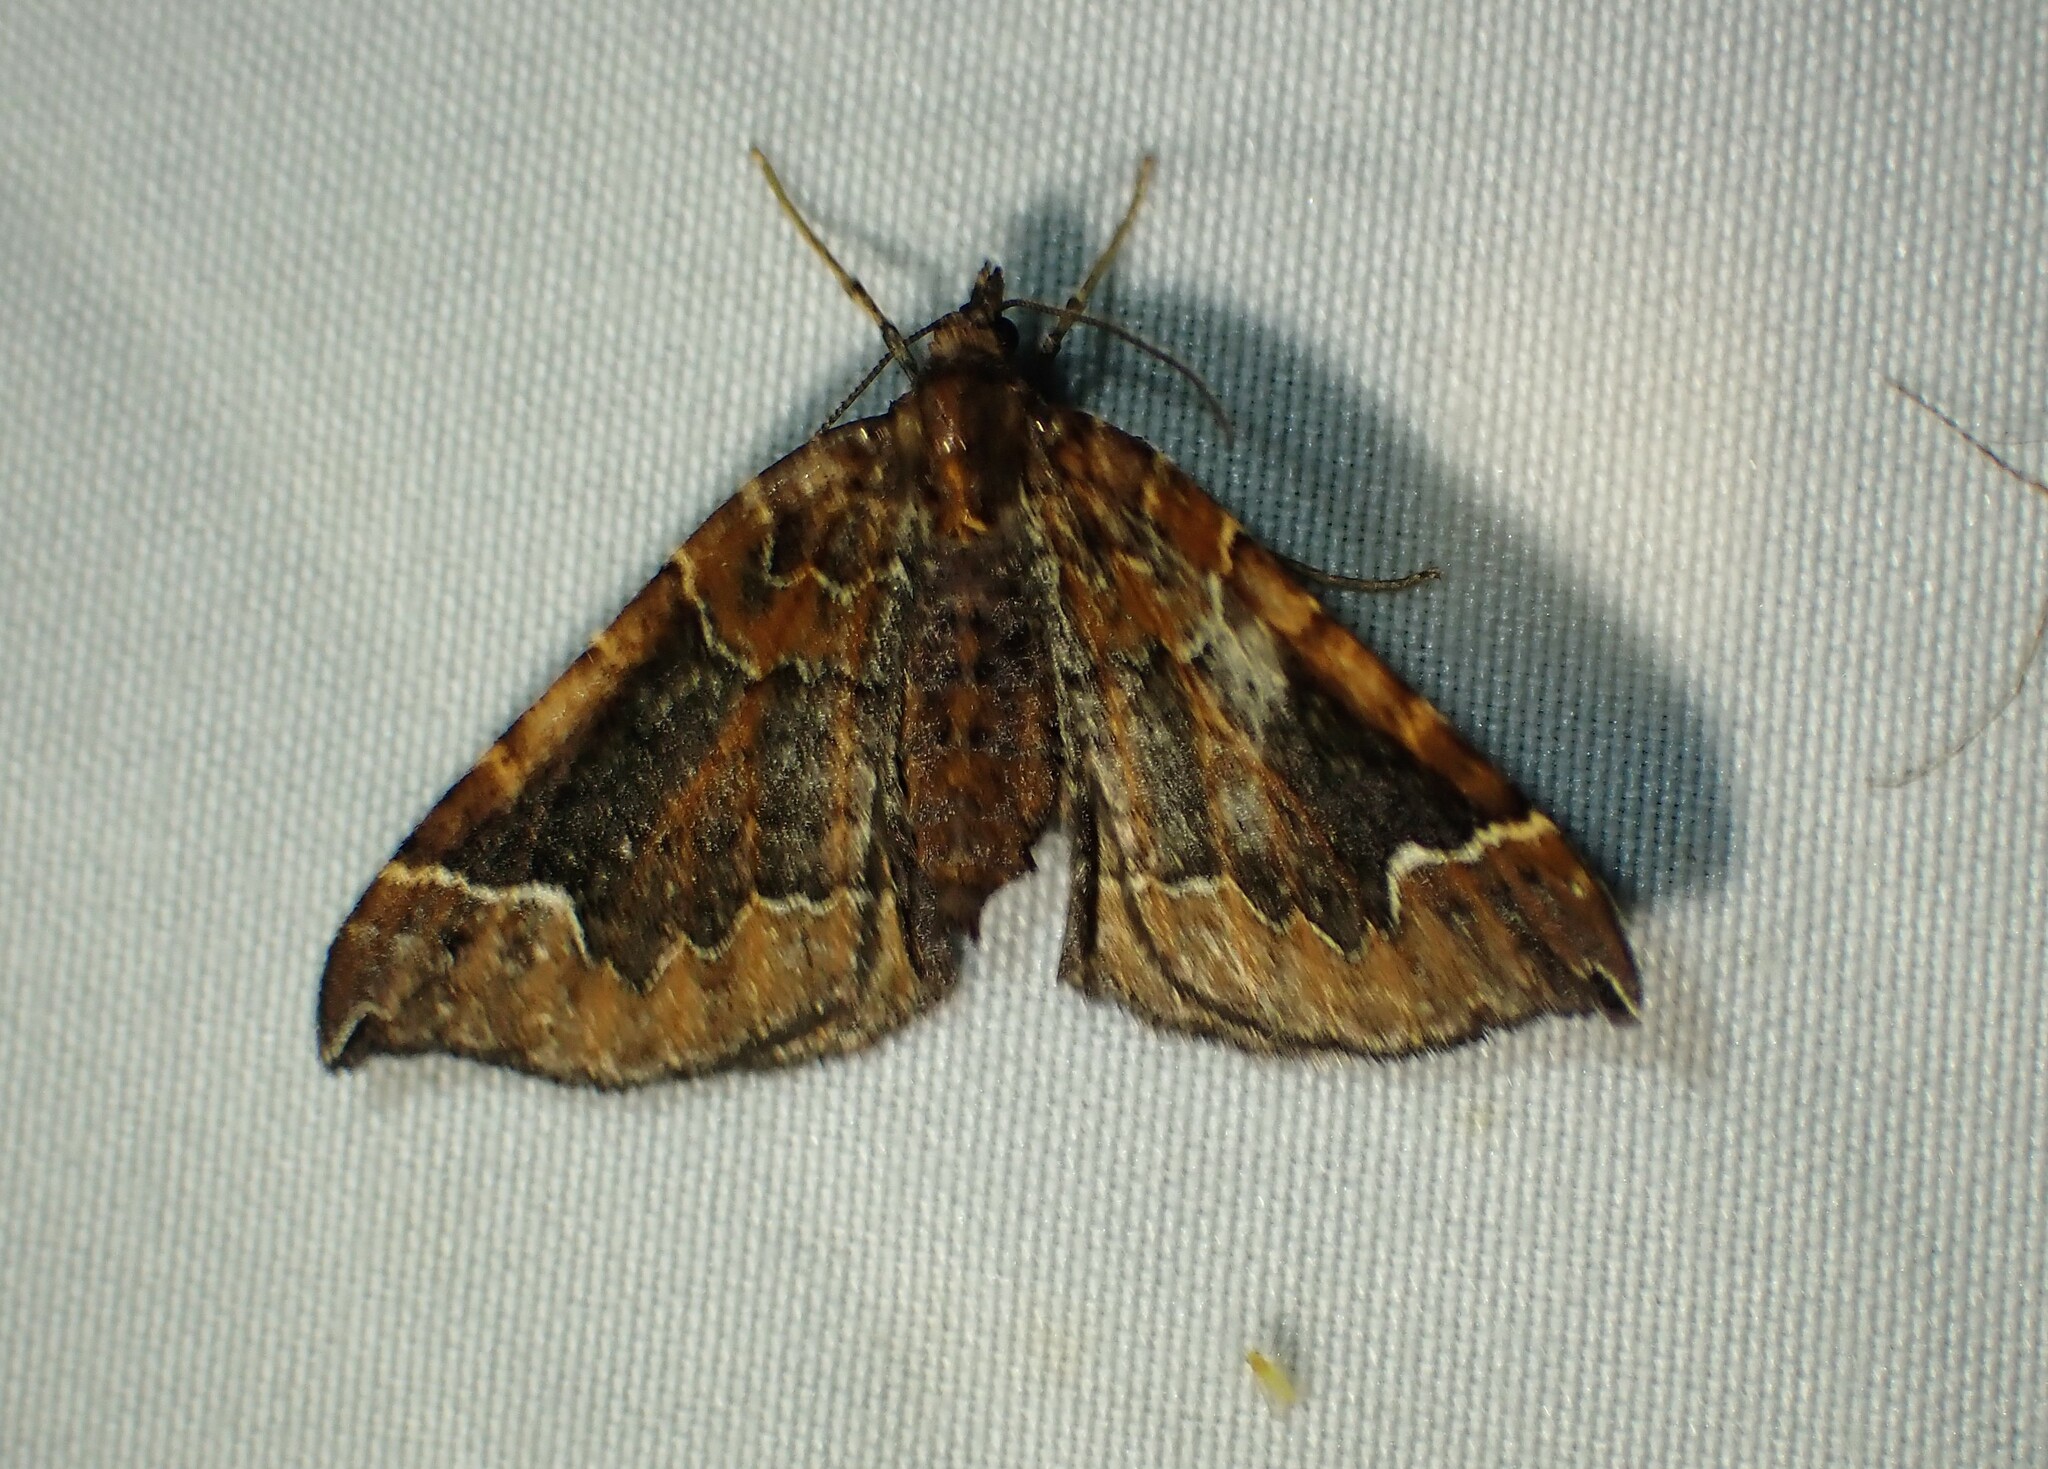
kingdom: Animalia
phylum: Arthropoda
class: Insecta
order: Lepidoptera
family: Geometridae
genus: Eulithis
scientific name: Eulithis flavibrunneata
